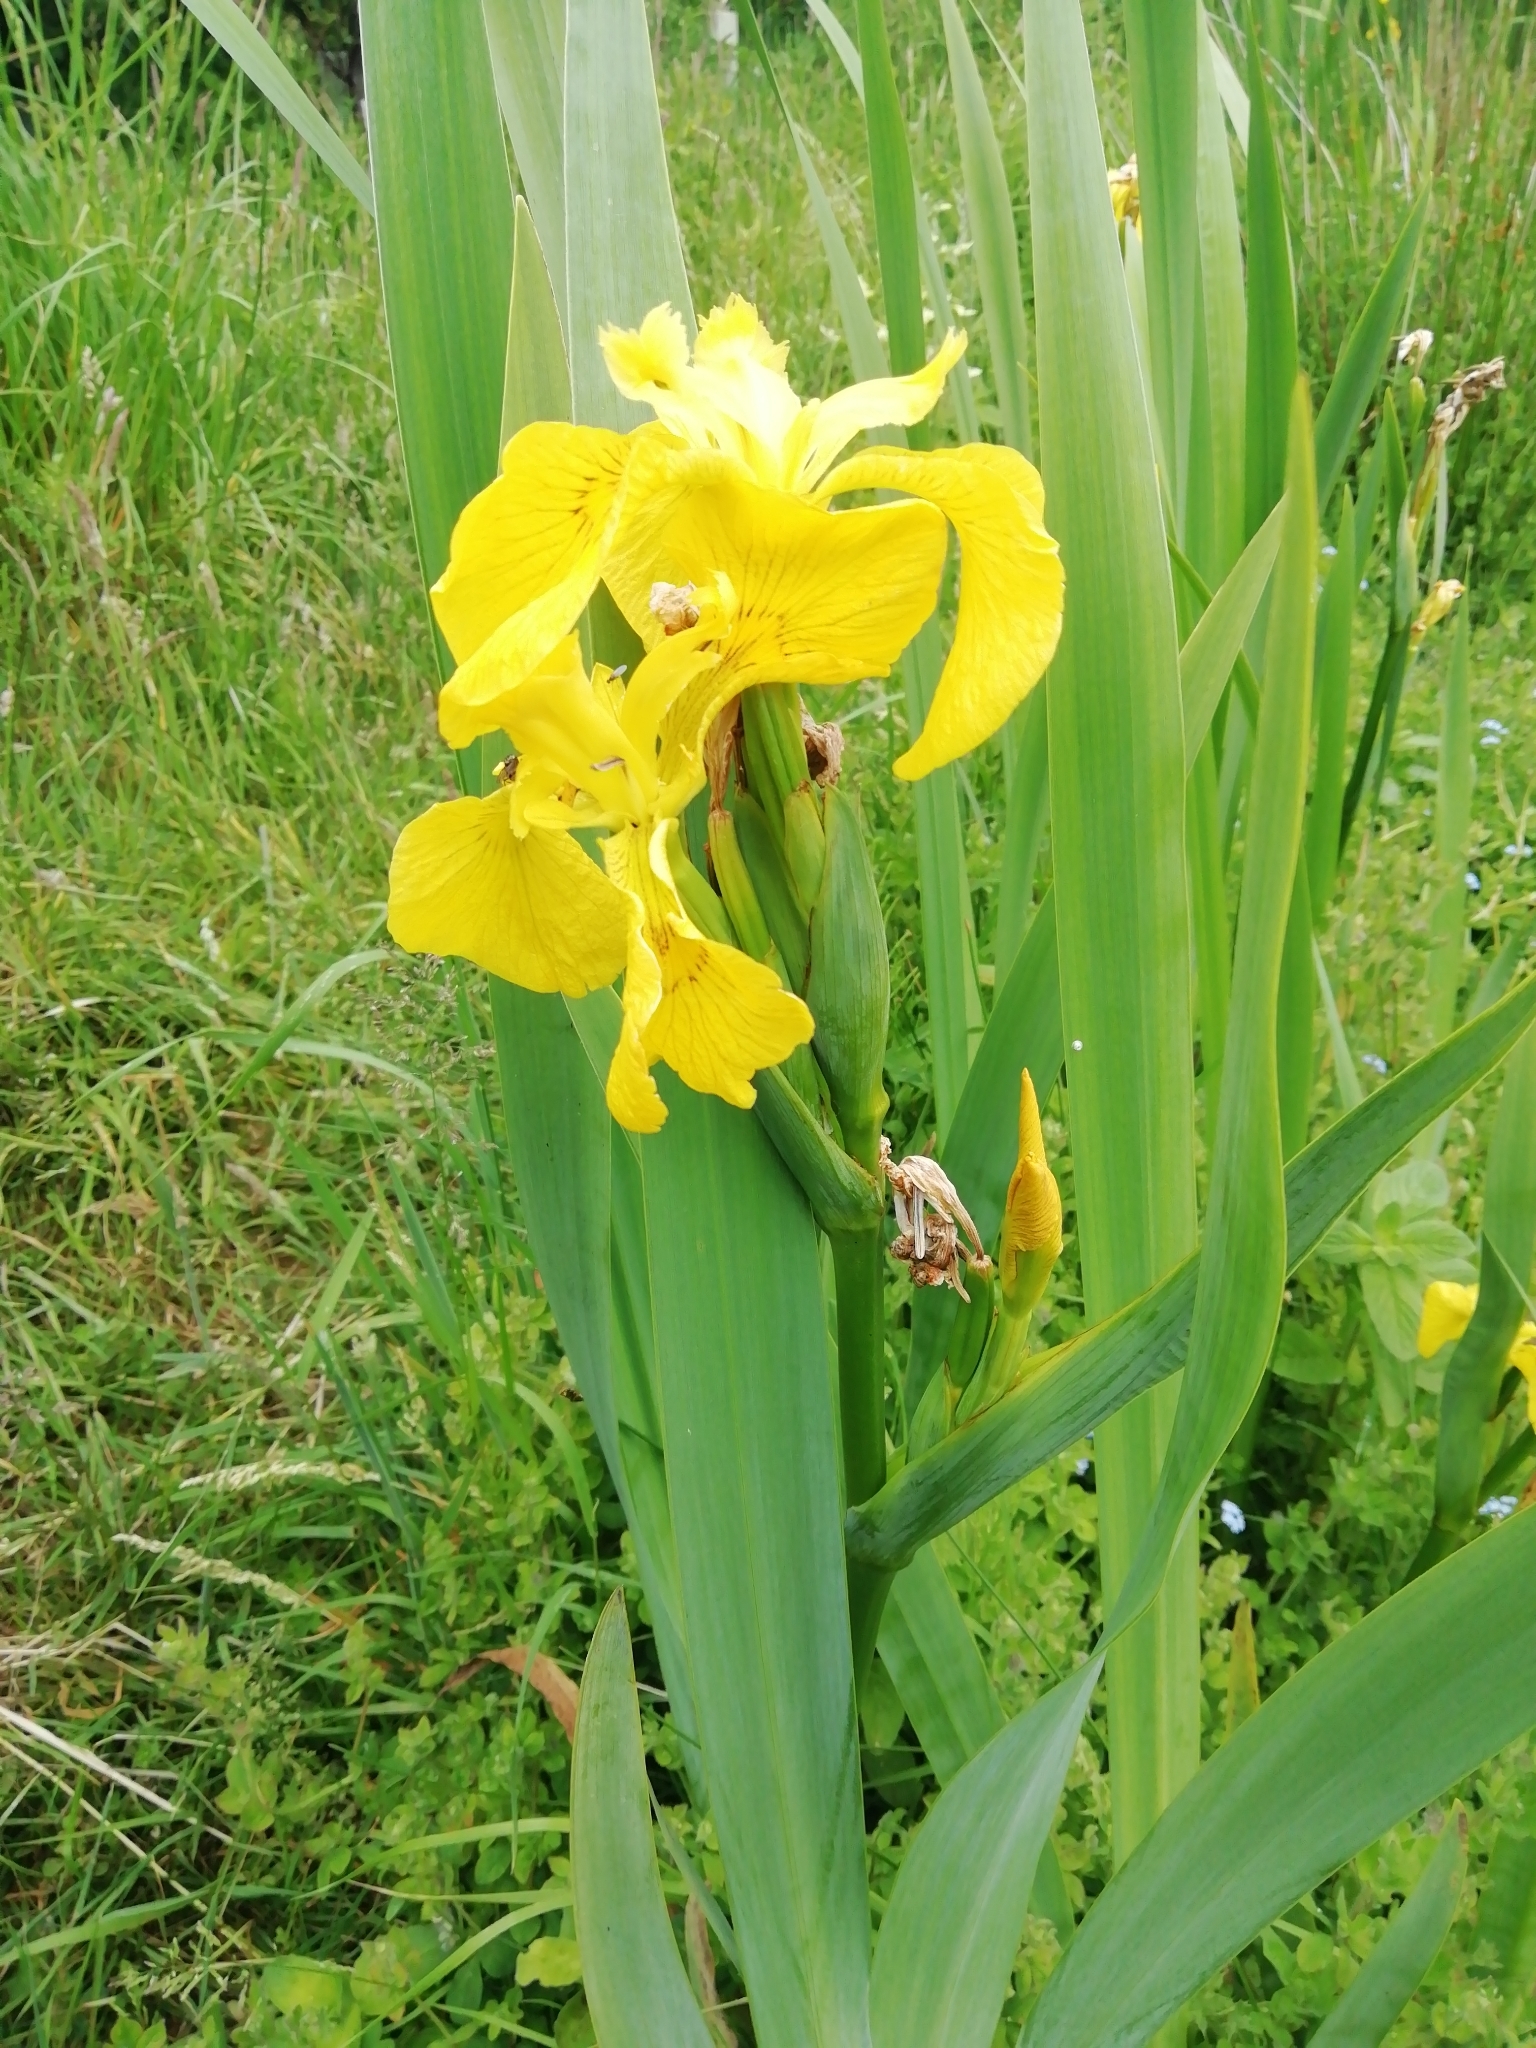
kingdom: Plantae
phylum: Tracheophyta
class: Liliopsida
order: Asparagales
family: Iridaceae
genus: Iris
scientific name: Iris pseudacorus
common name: Yellow flag
